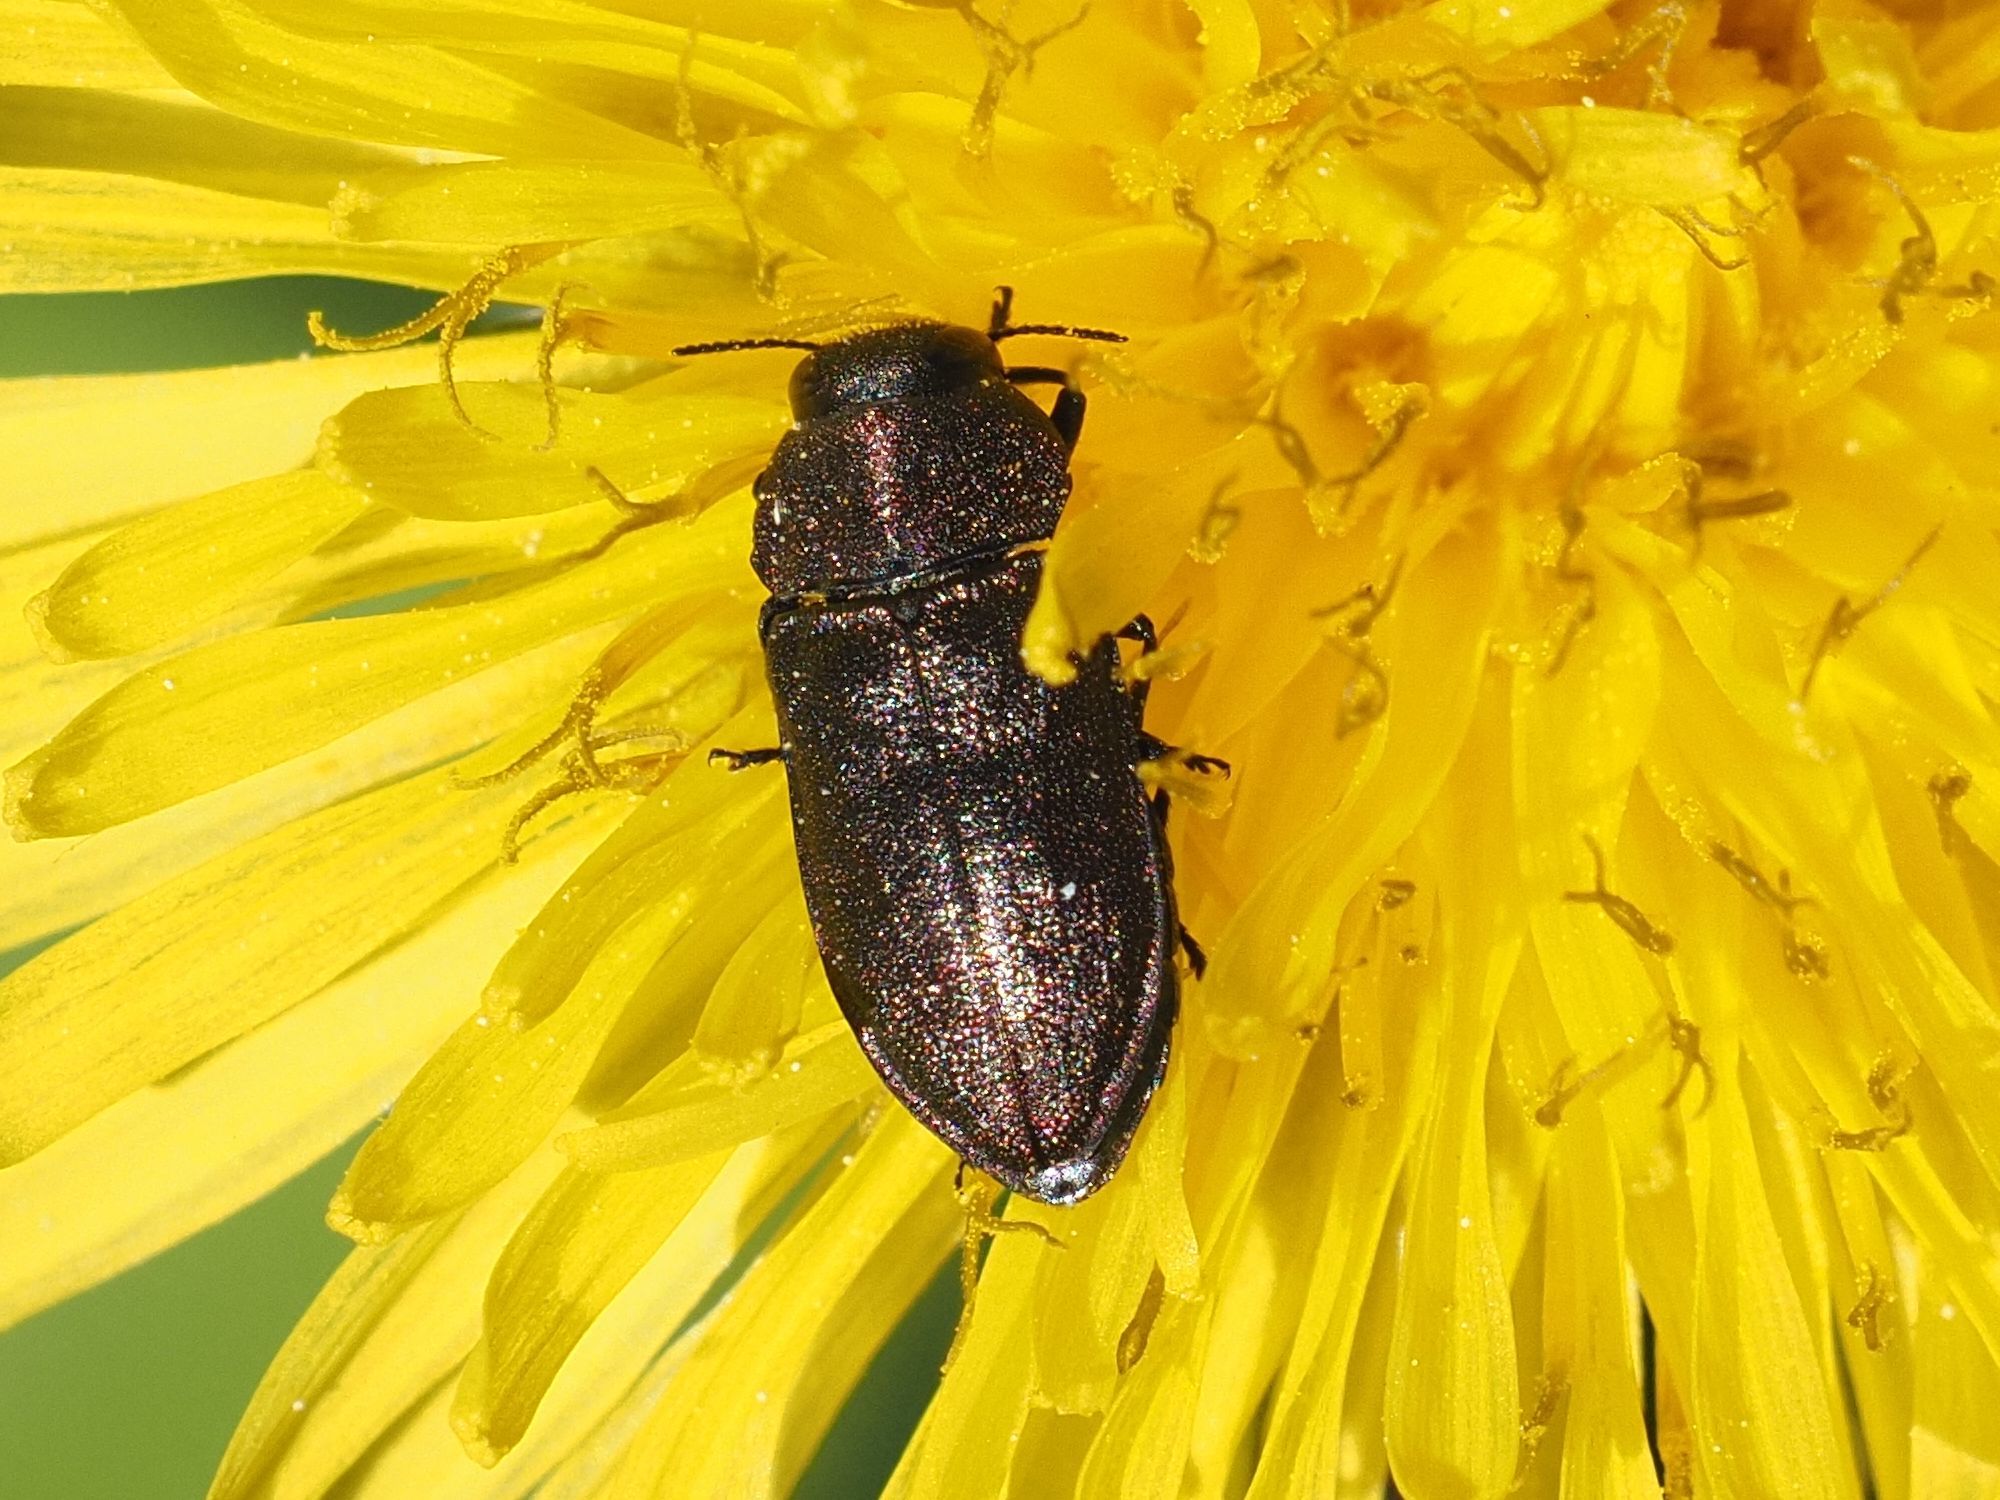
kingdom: Animalia
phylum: Arthropoda
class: Insecta
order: Coleoptera
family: Buprestidae
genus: Anthaxia
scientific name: Anthaxia helvetica
